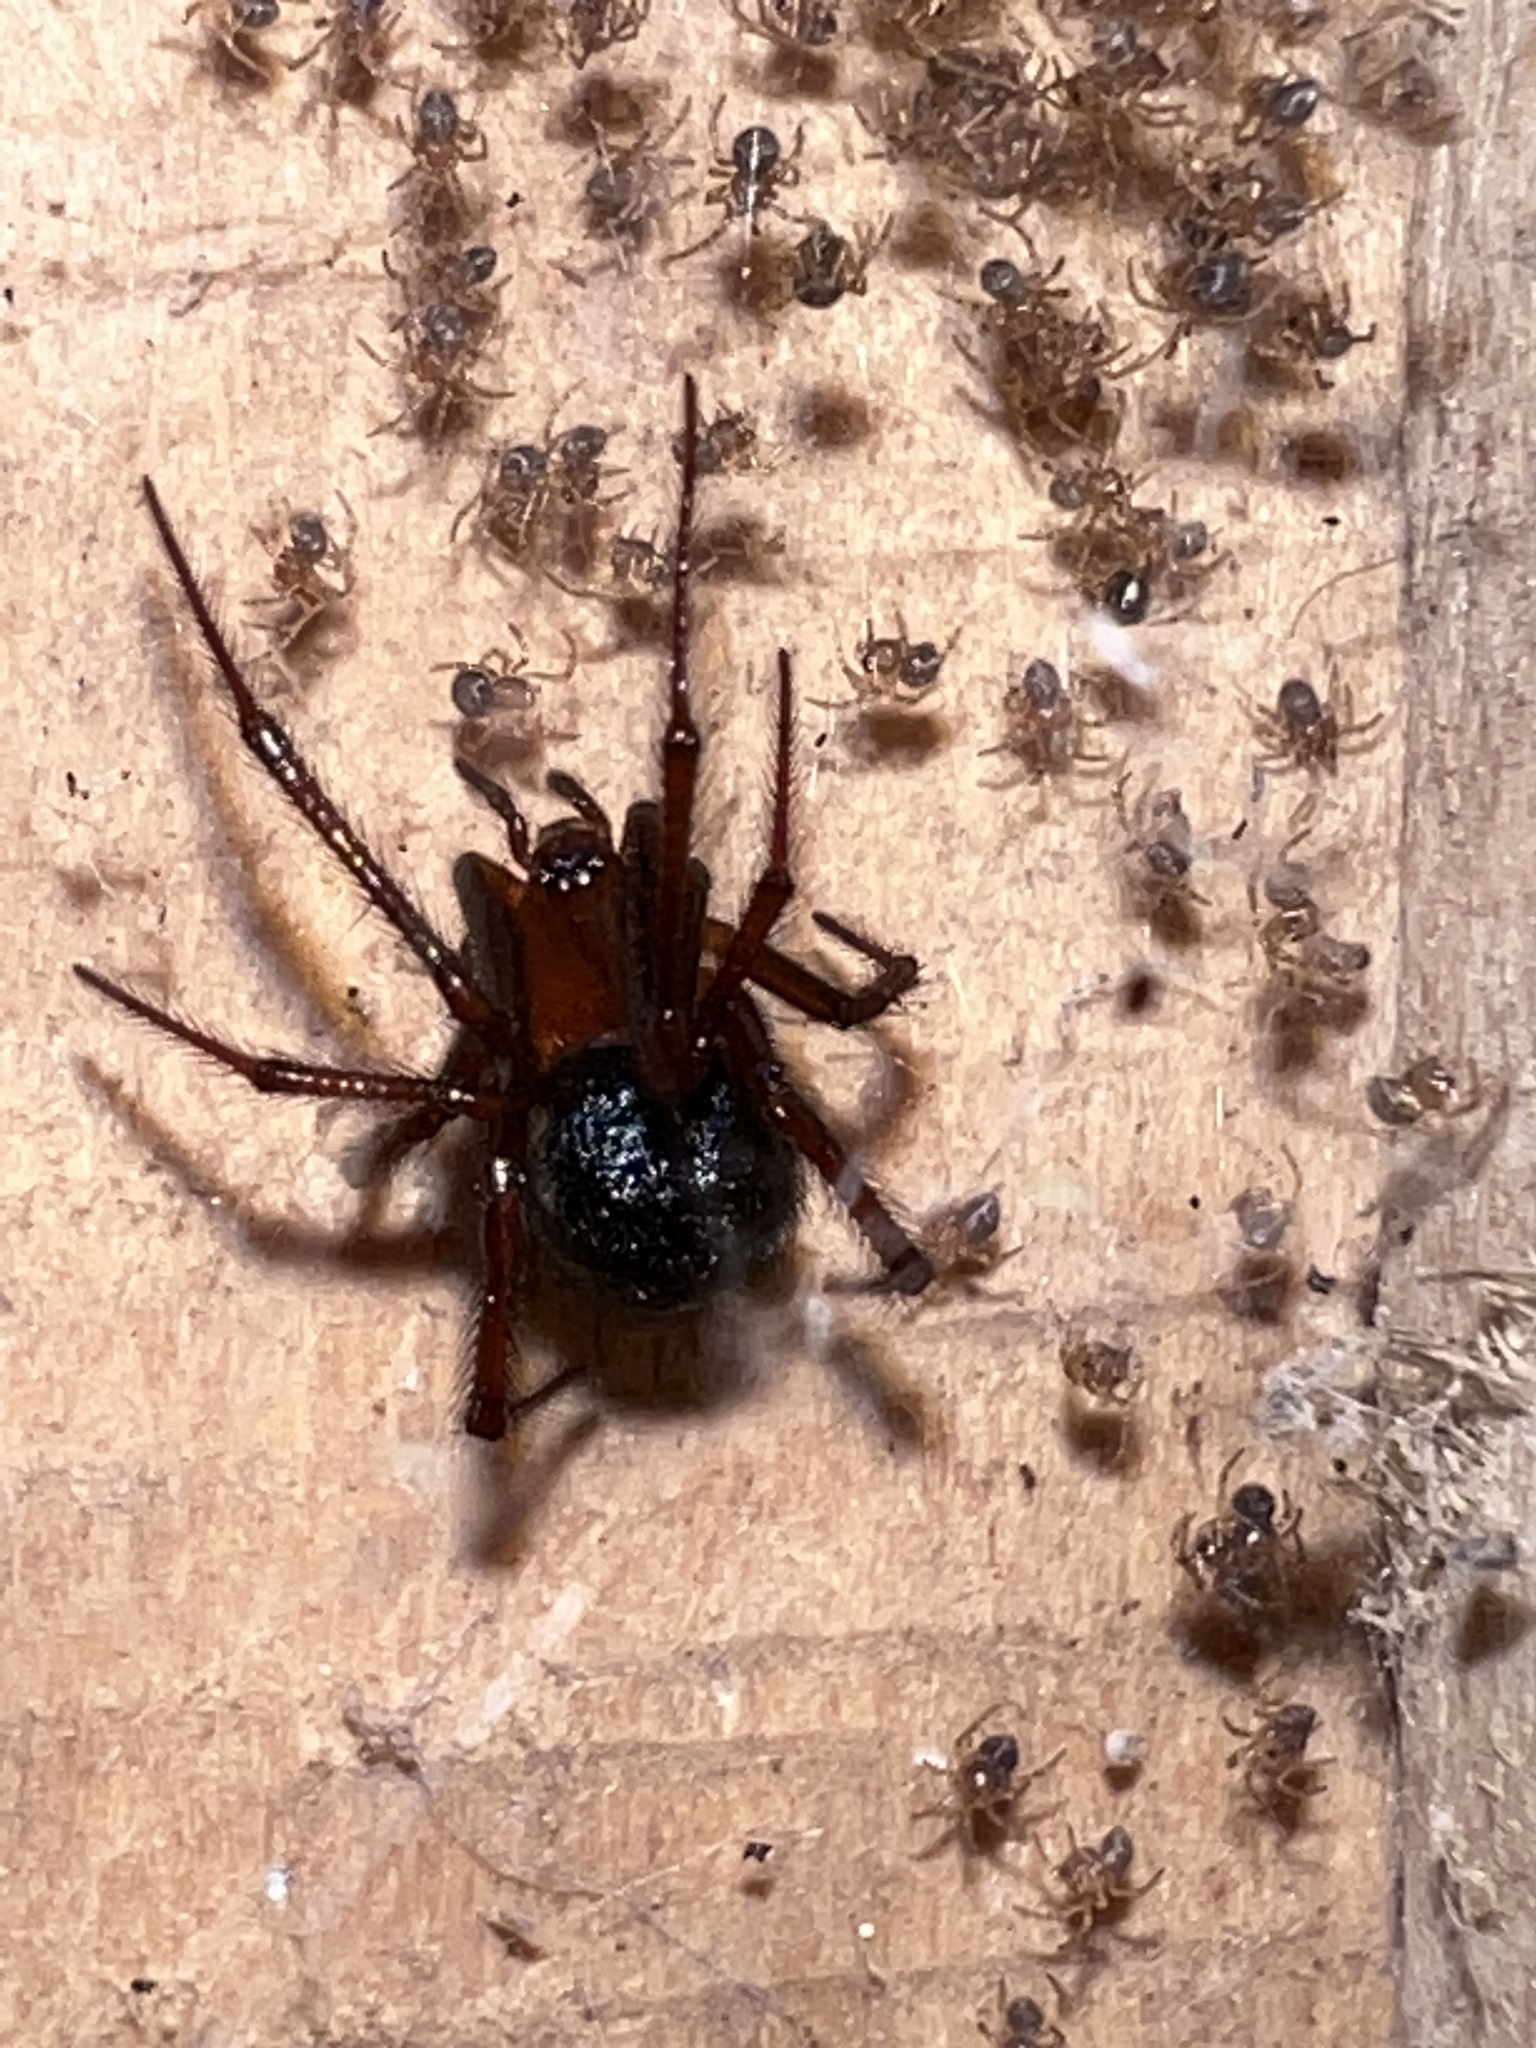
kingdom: Animalia
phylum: Arthropoda
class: Arachnida
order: Araneae
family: Theridiidae
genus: Nesticodes
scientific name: Nesticodes rufipes
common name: Cobweb spiders
